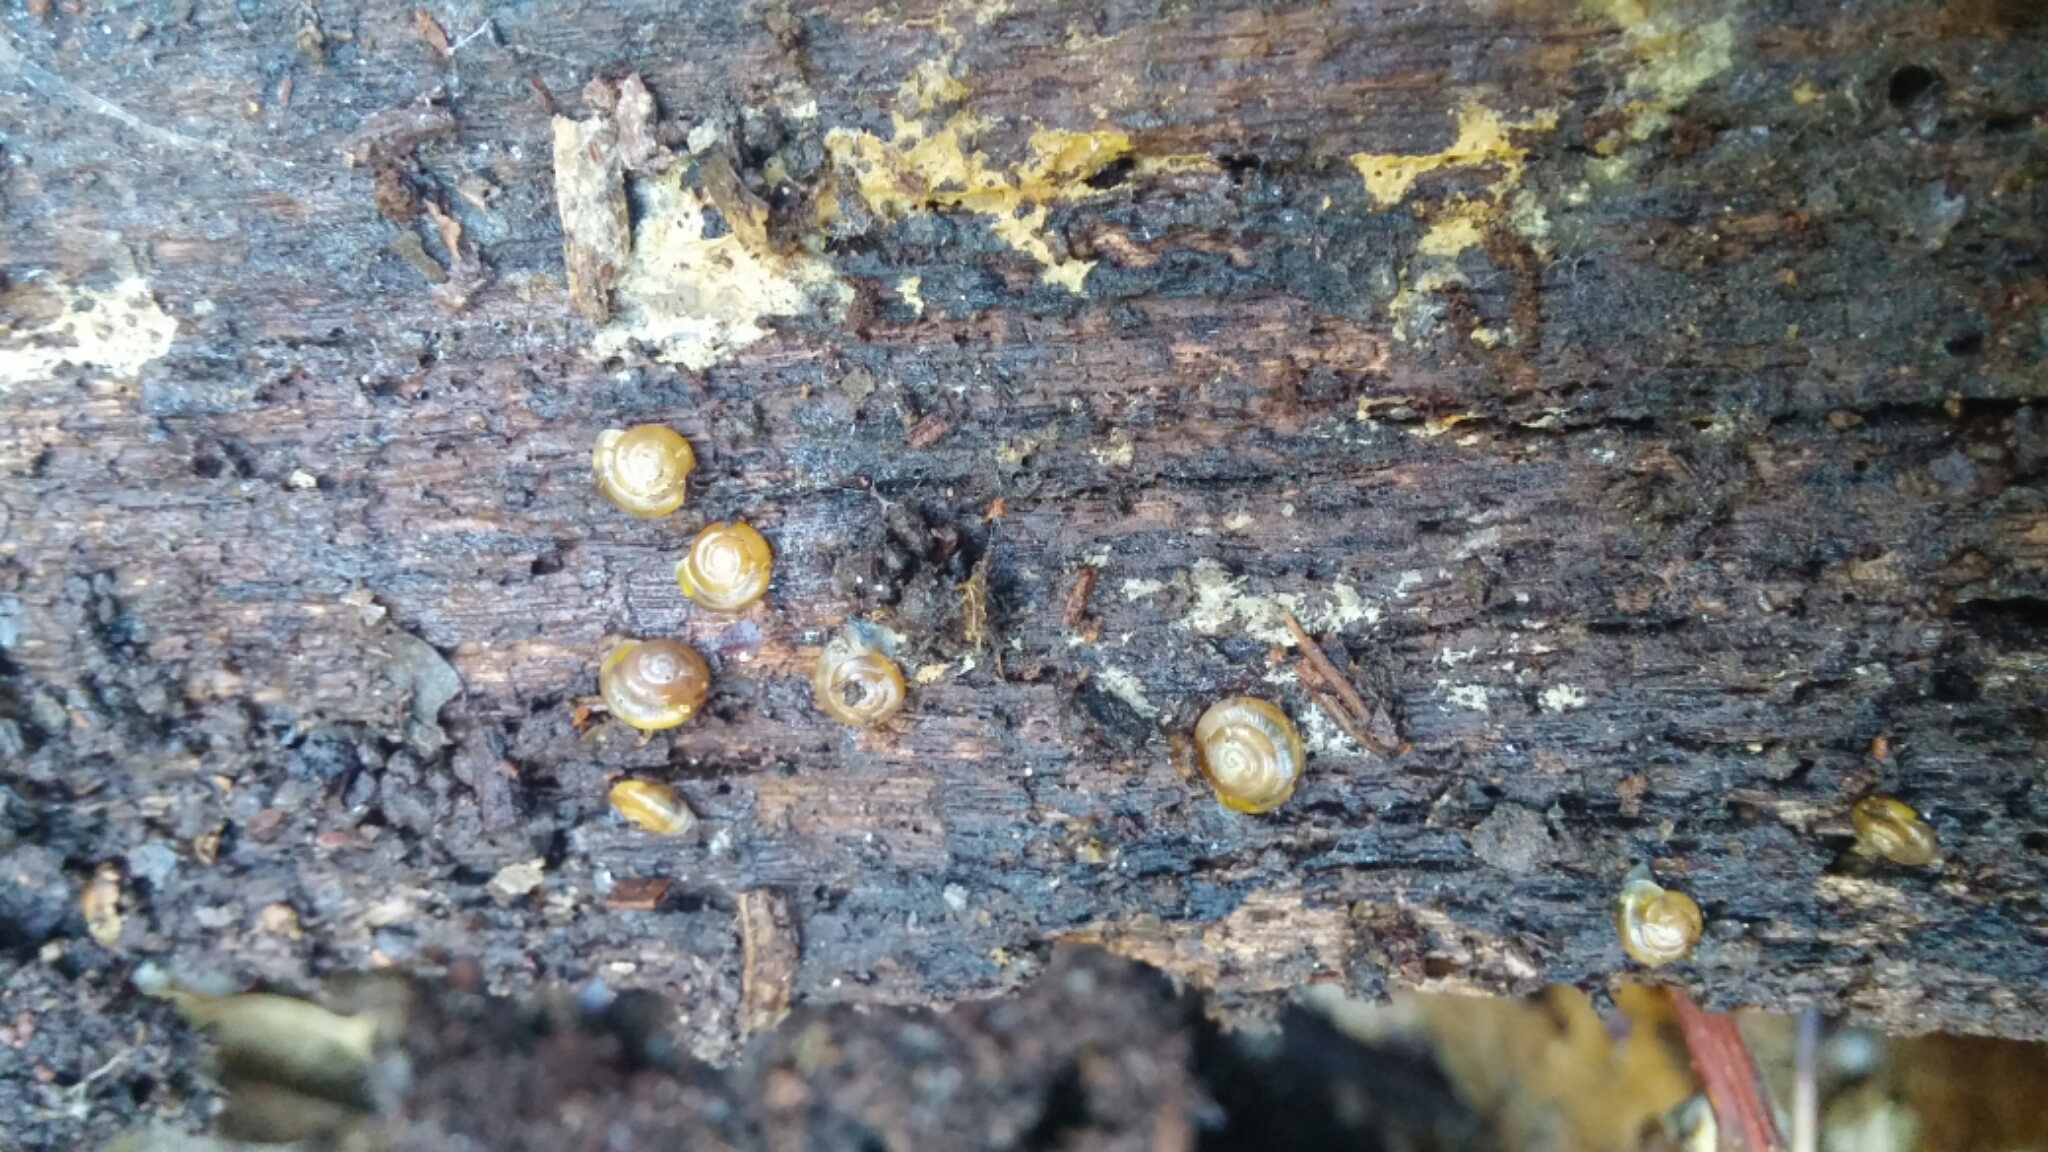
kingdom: Animalia
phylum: Mollusca
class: Gastropoda
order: Stylommatophora
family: Gastrodontidae
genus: Zonitoides
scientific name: Zonitoides arboreus
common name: Quick gloss
